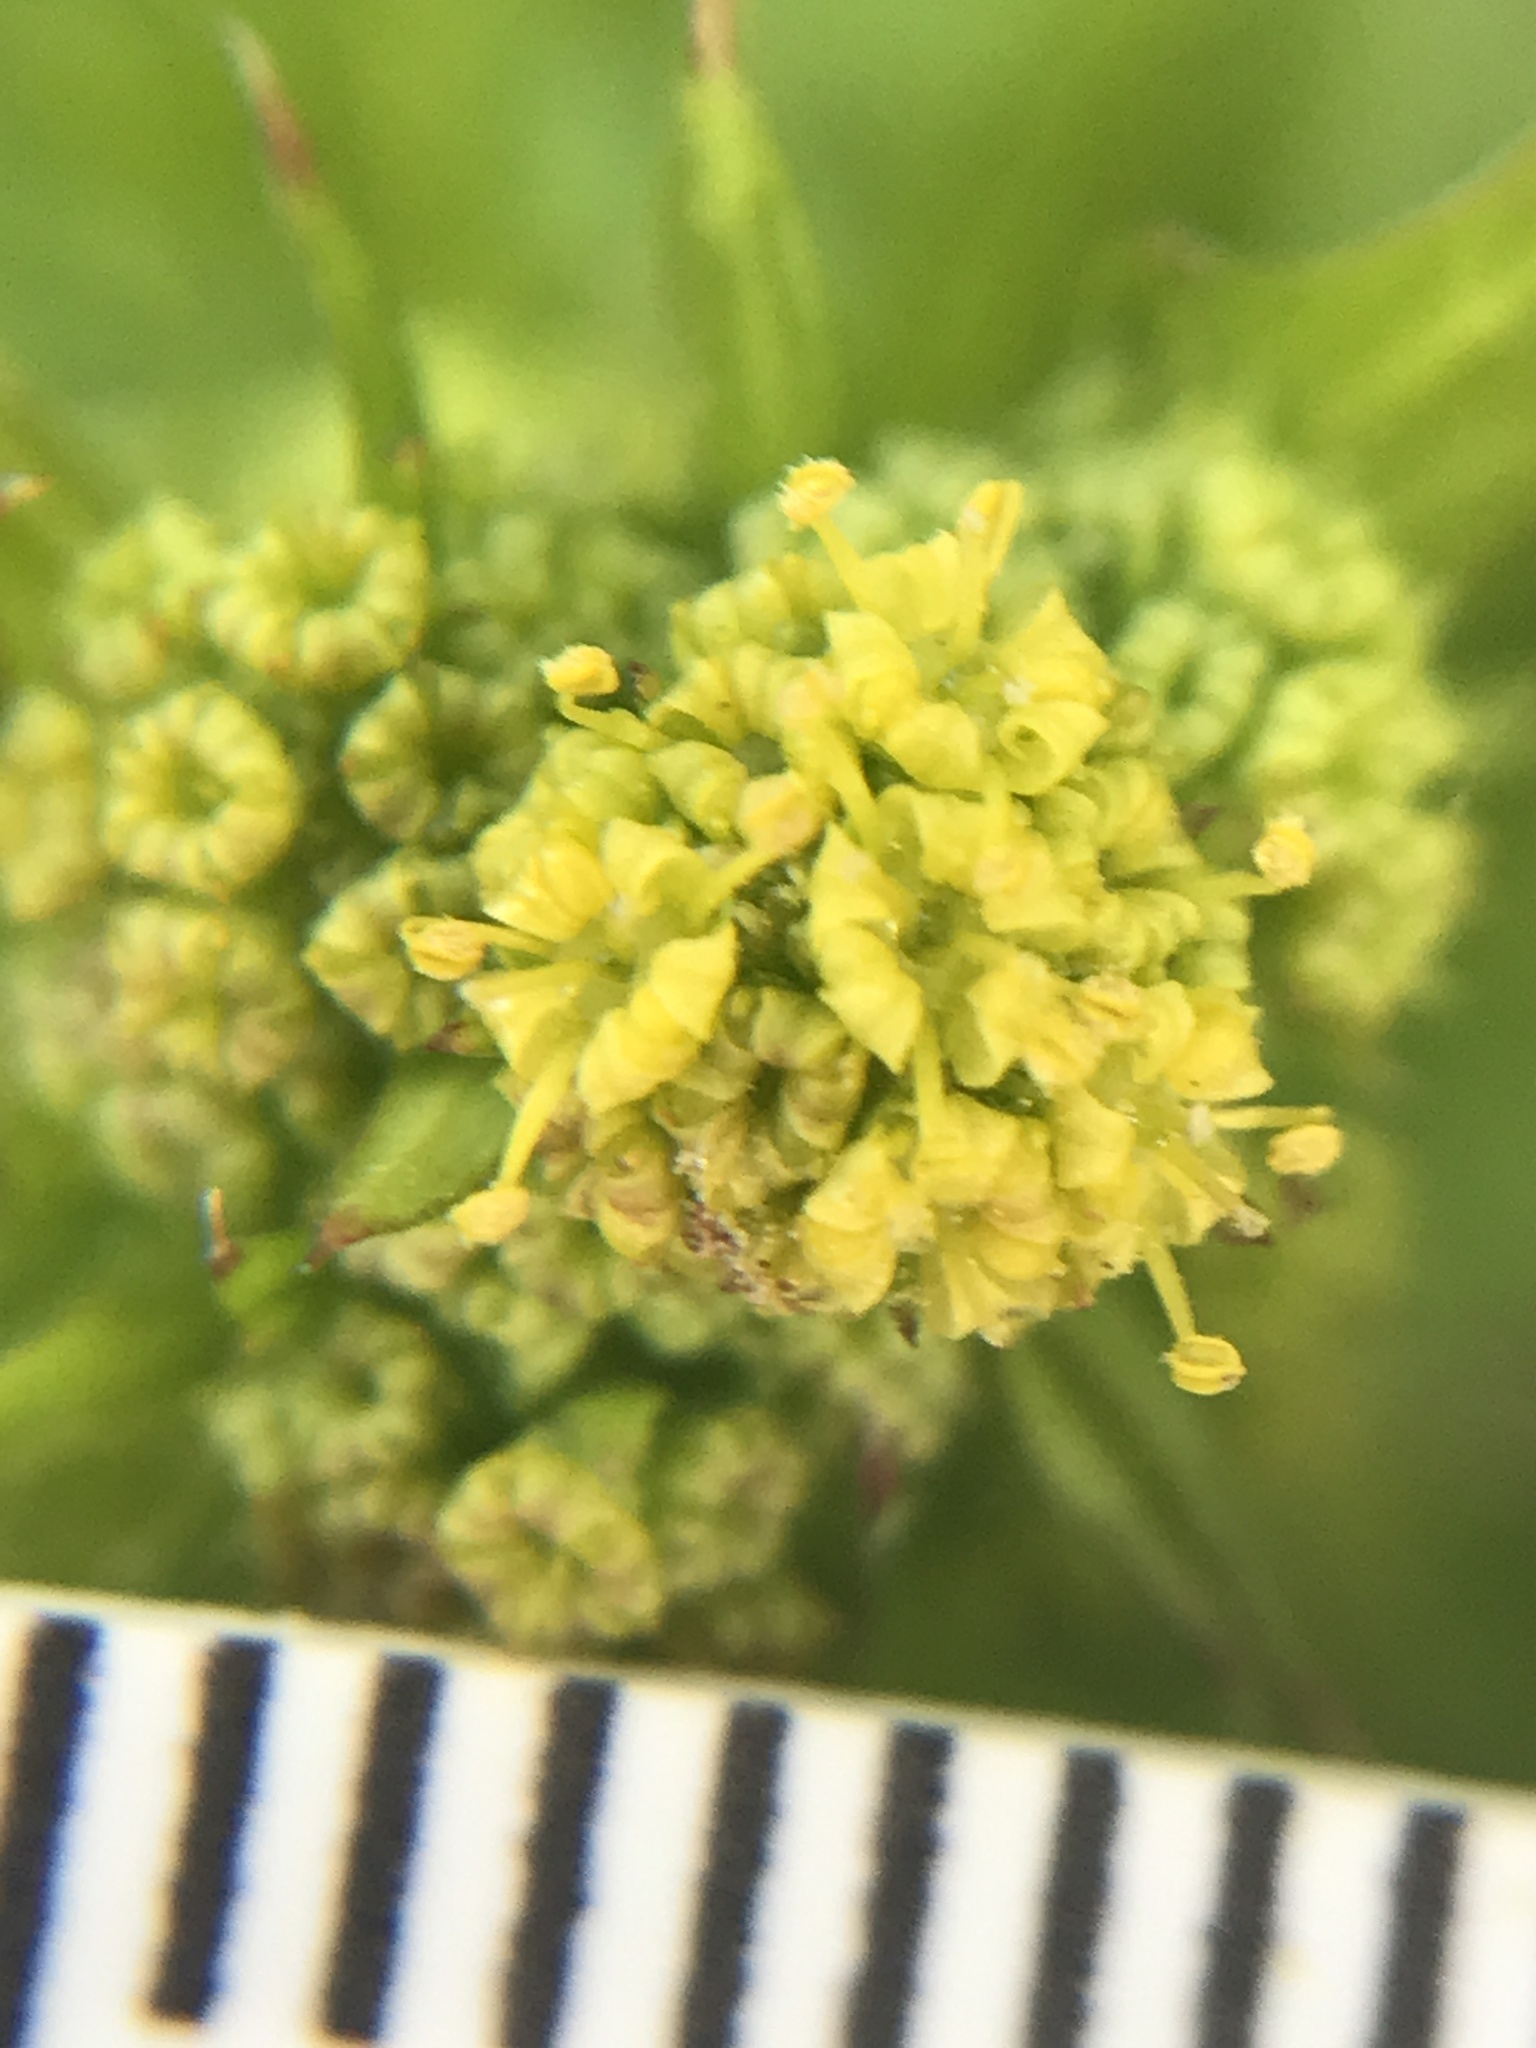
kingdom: Plantae
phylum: Tracheophyta
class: Magnoliopsida
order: Apiales
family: Apiaceae
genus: Sanicula
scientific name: Sanicula crassicaulis
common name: Western snakeroot
